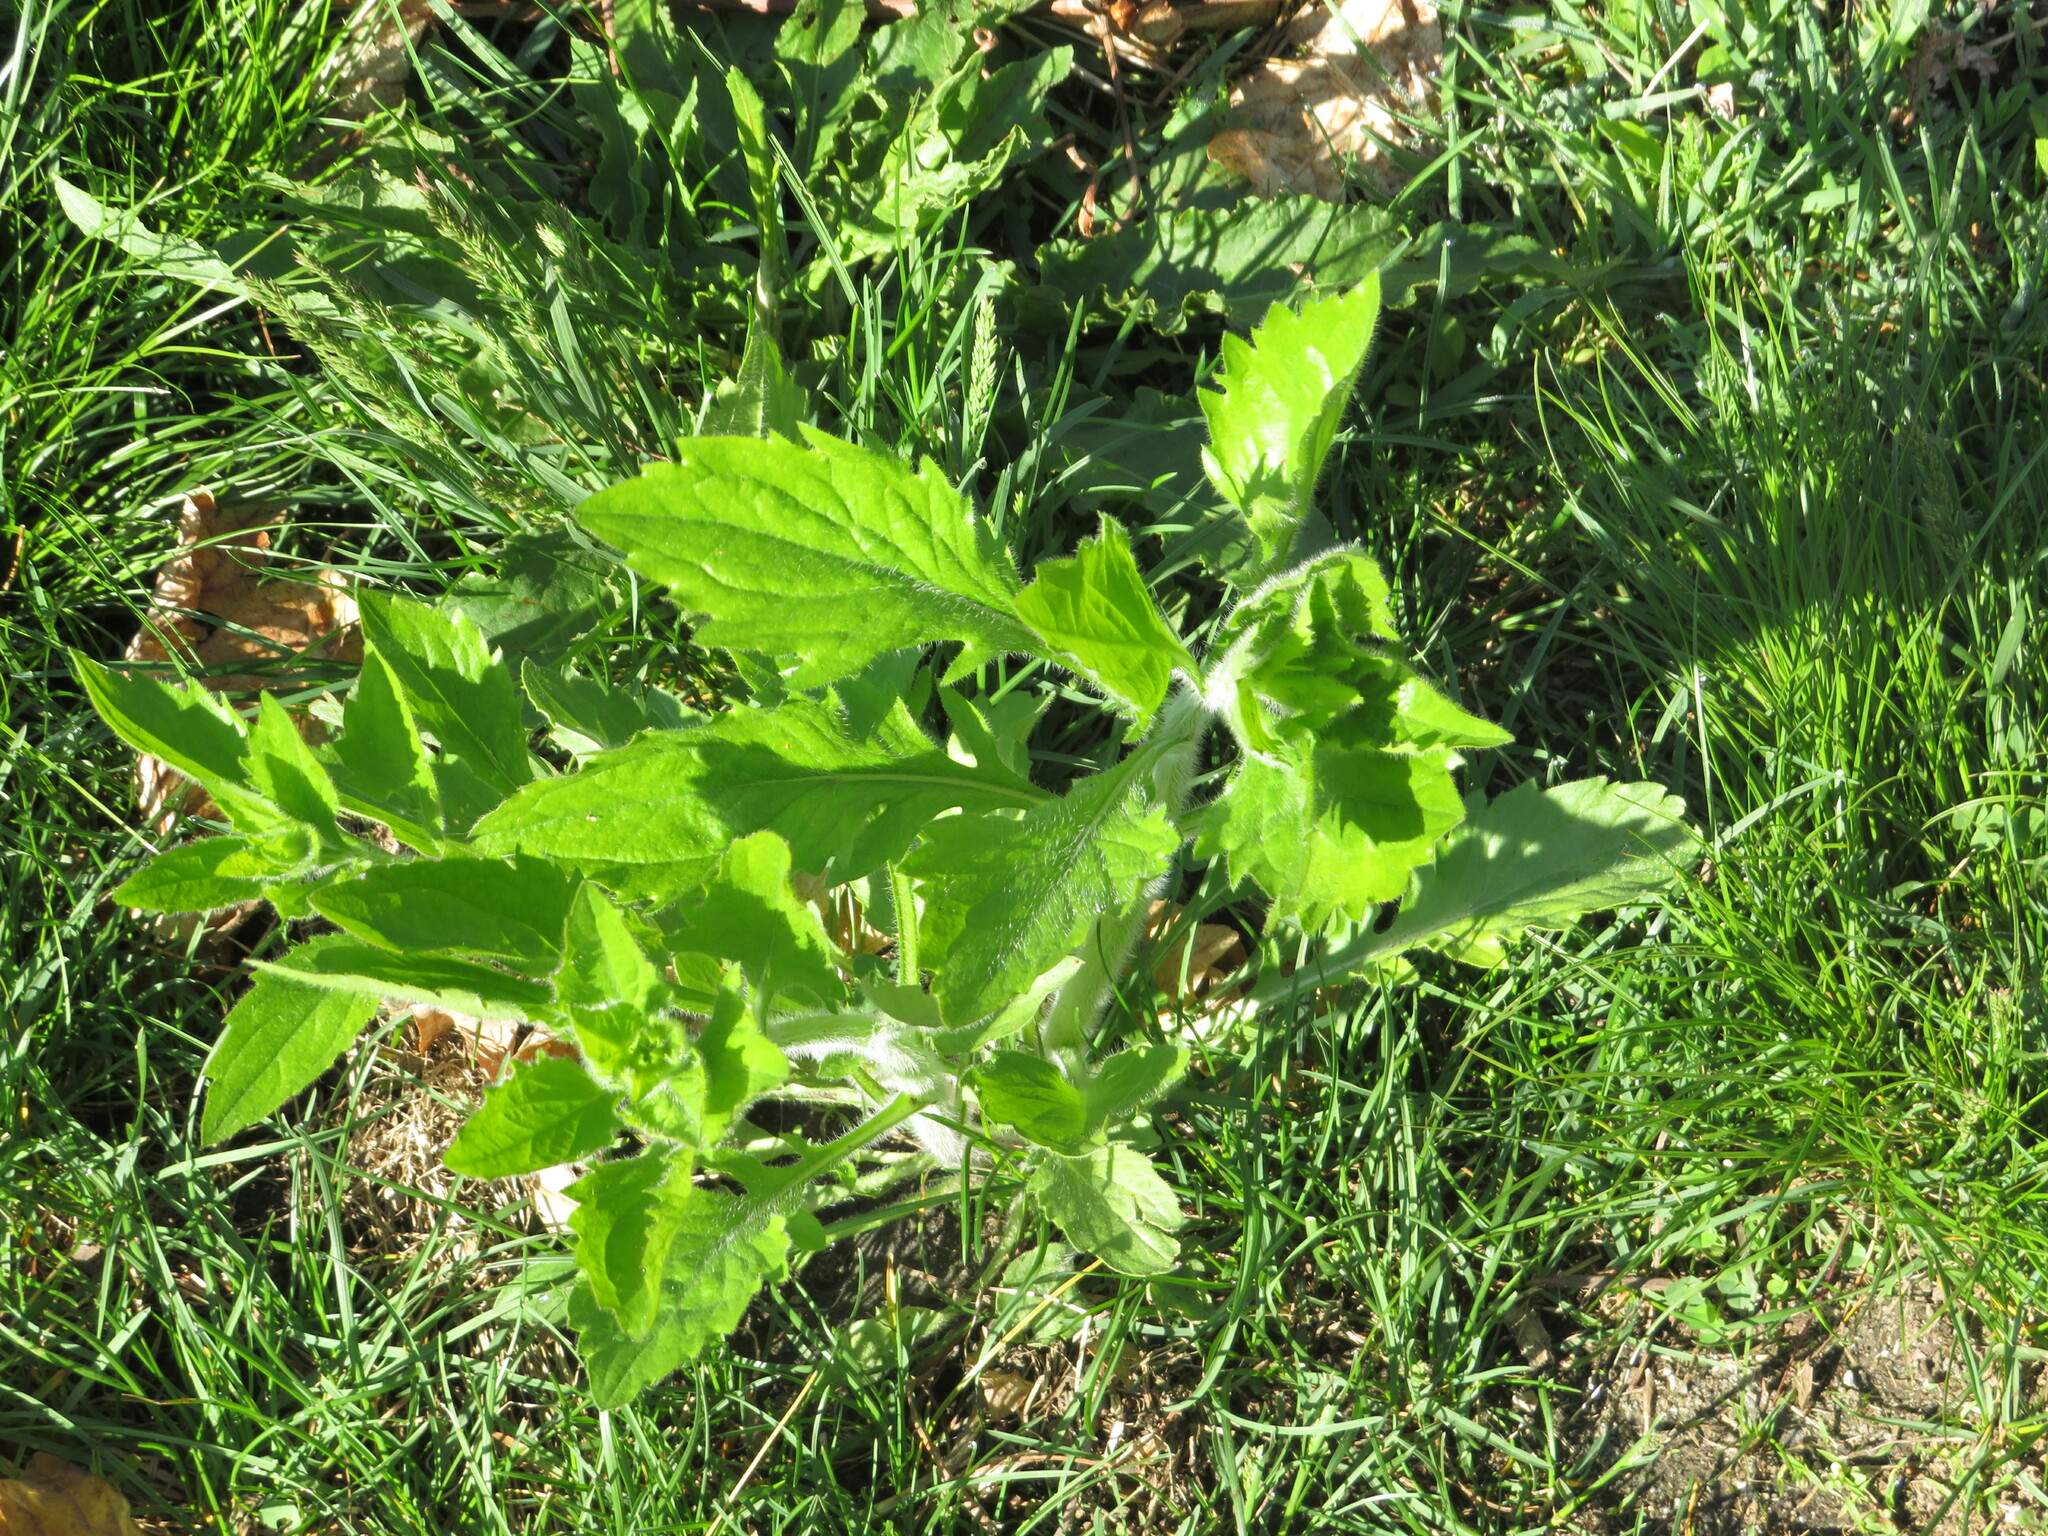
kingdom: Plantae
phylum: Tracheophyta
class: Magnoliopsida
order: Asterales
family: Asteraceae
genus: Erigeron
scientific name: Erigeron annuus
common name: Tall fleabane
